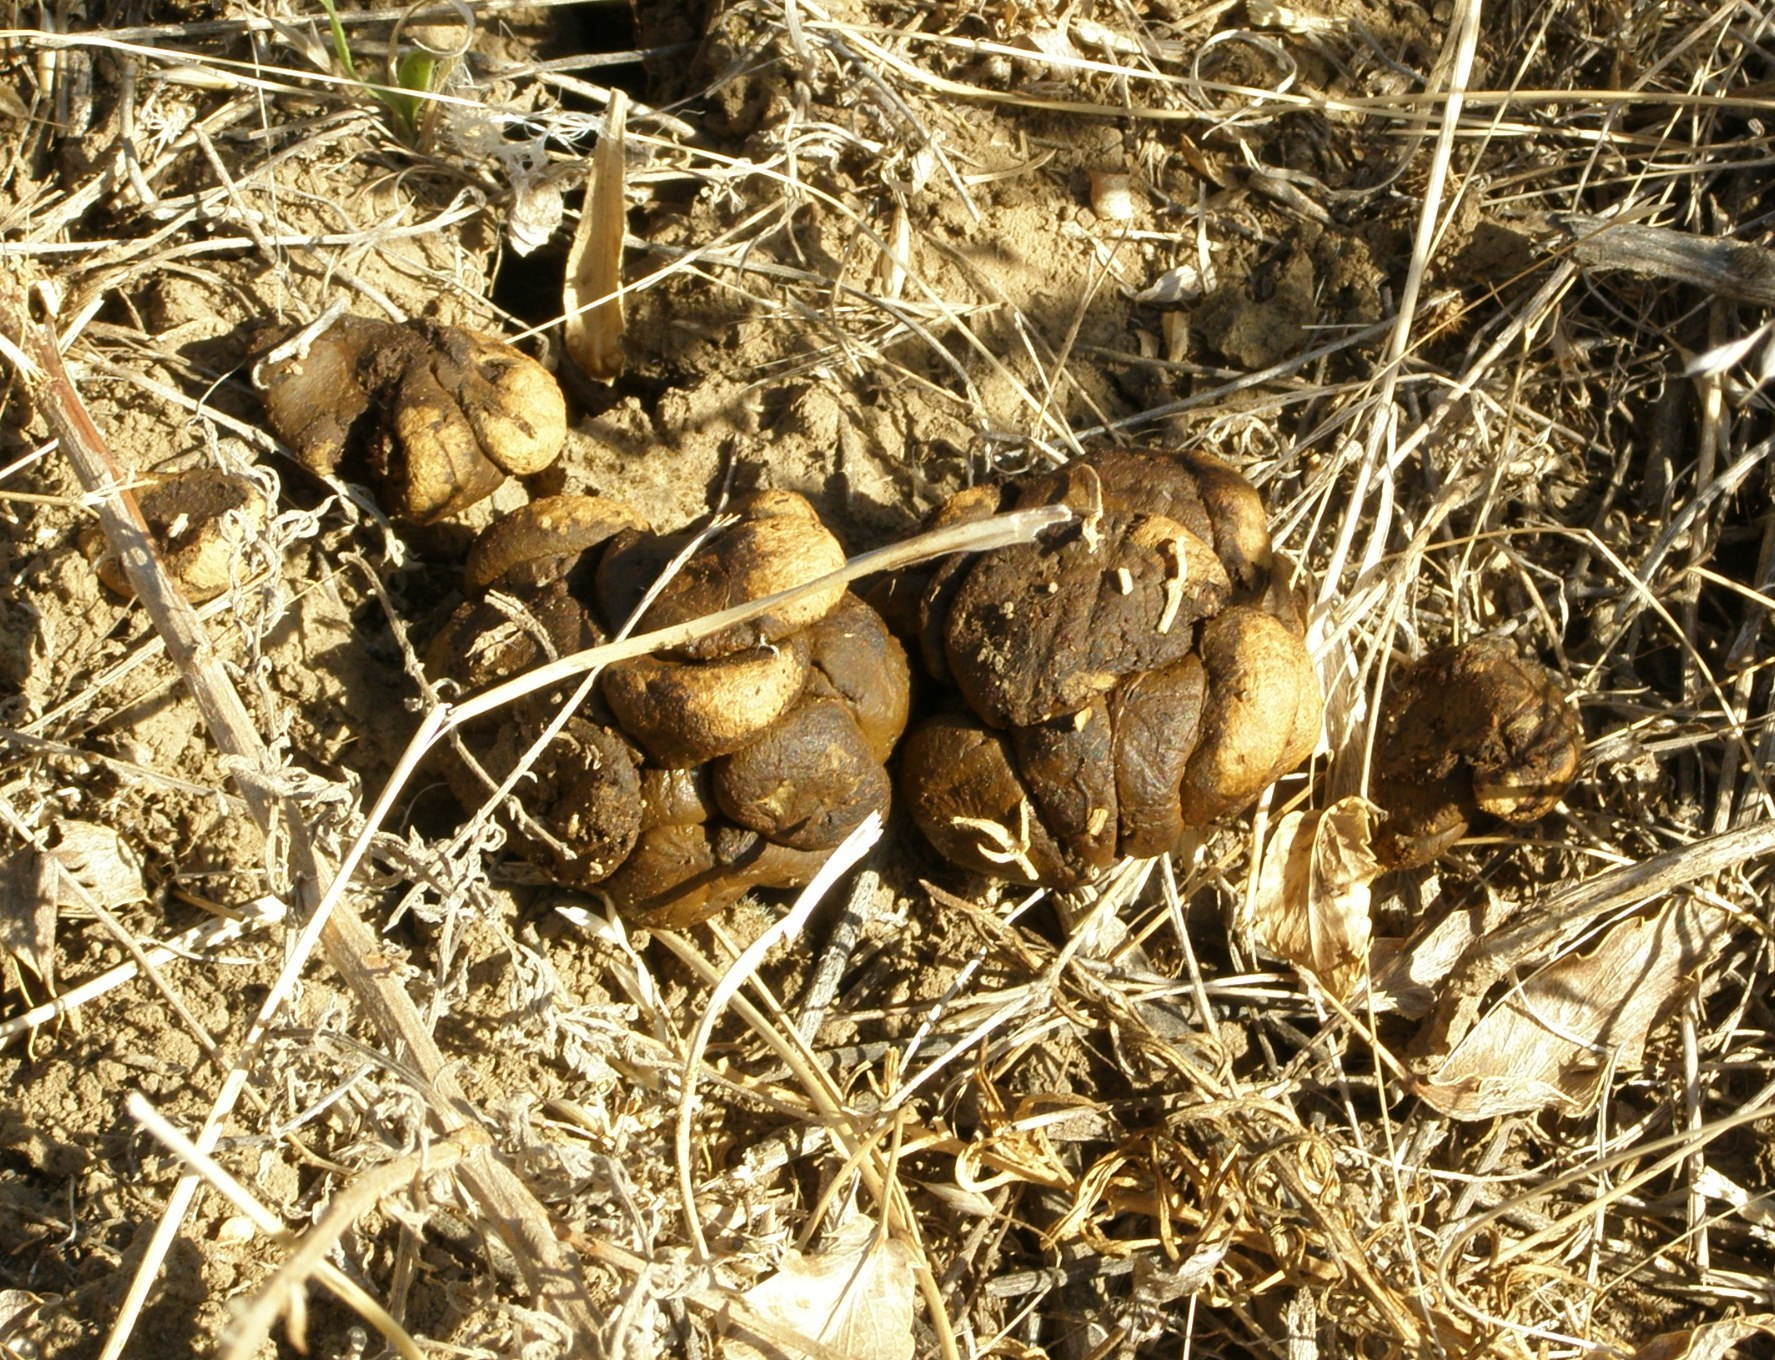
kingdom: Animalia
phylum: Chordata
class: Mammalia
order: Artiodactyla
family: Suidae
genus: Sus
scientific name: Sus scrofa
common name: Wild boar
